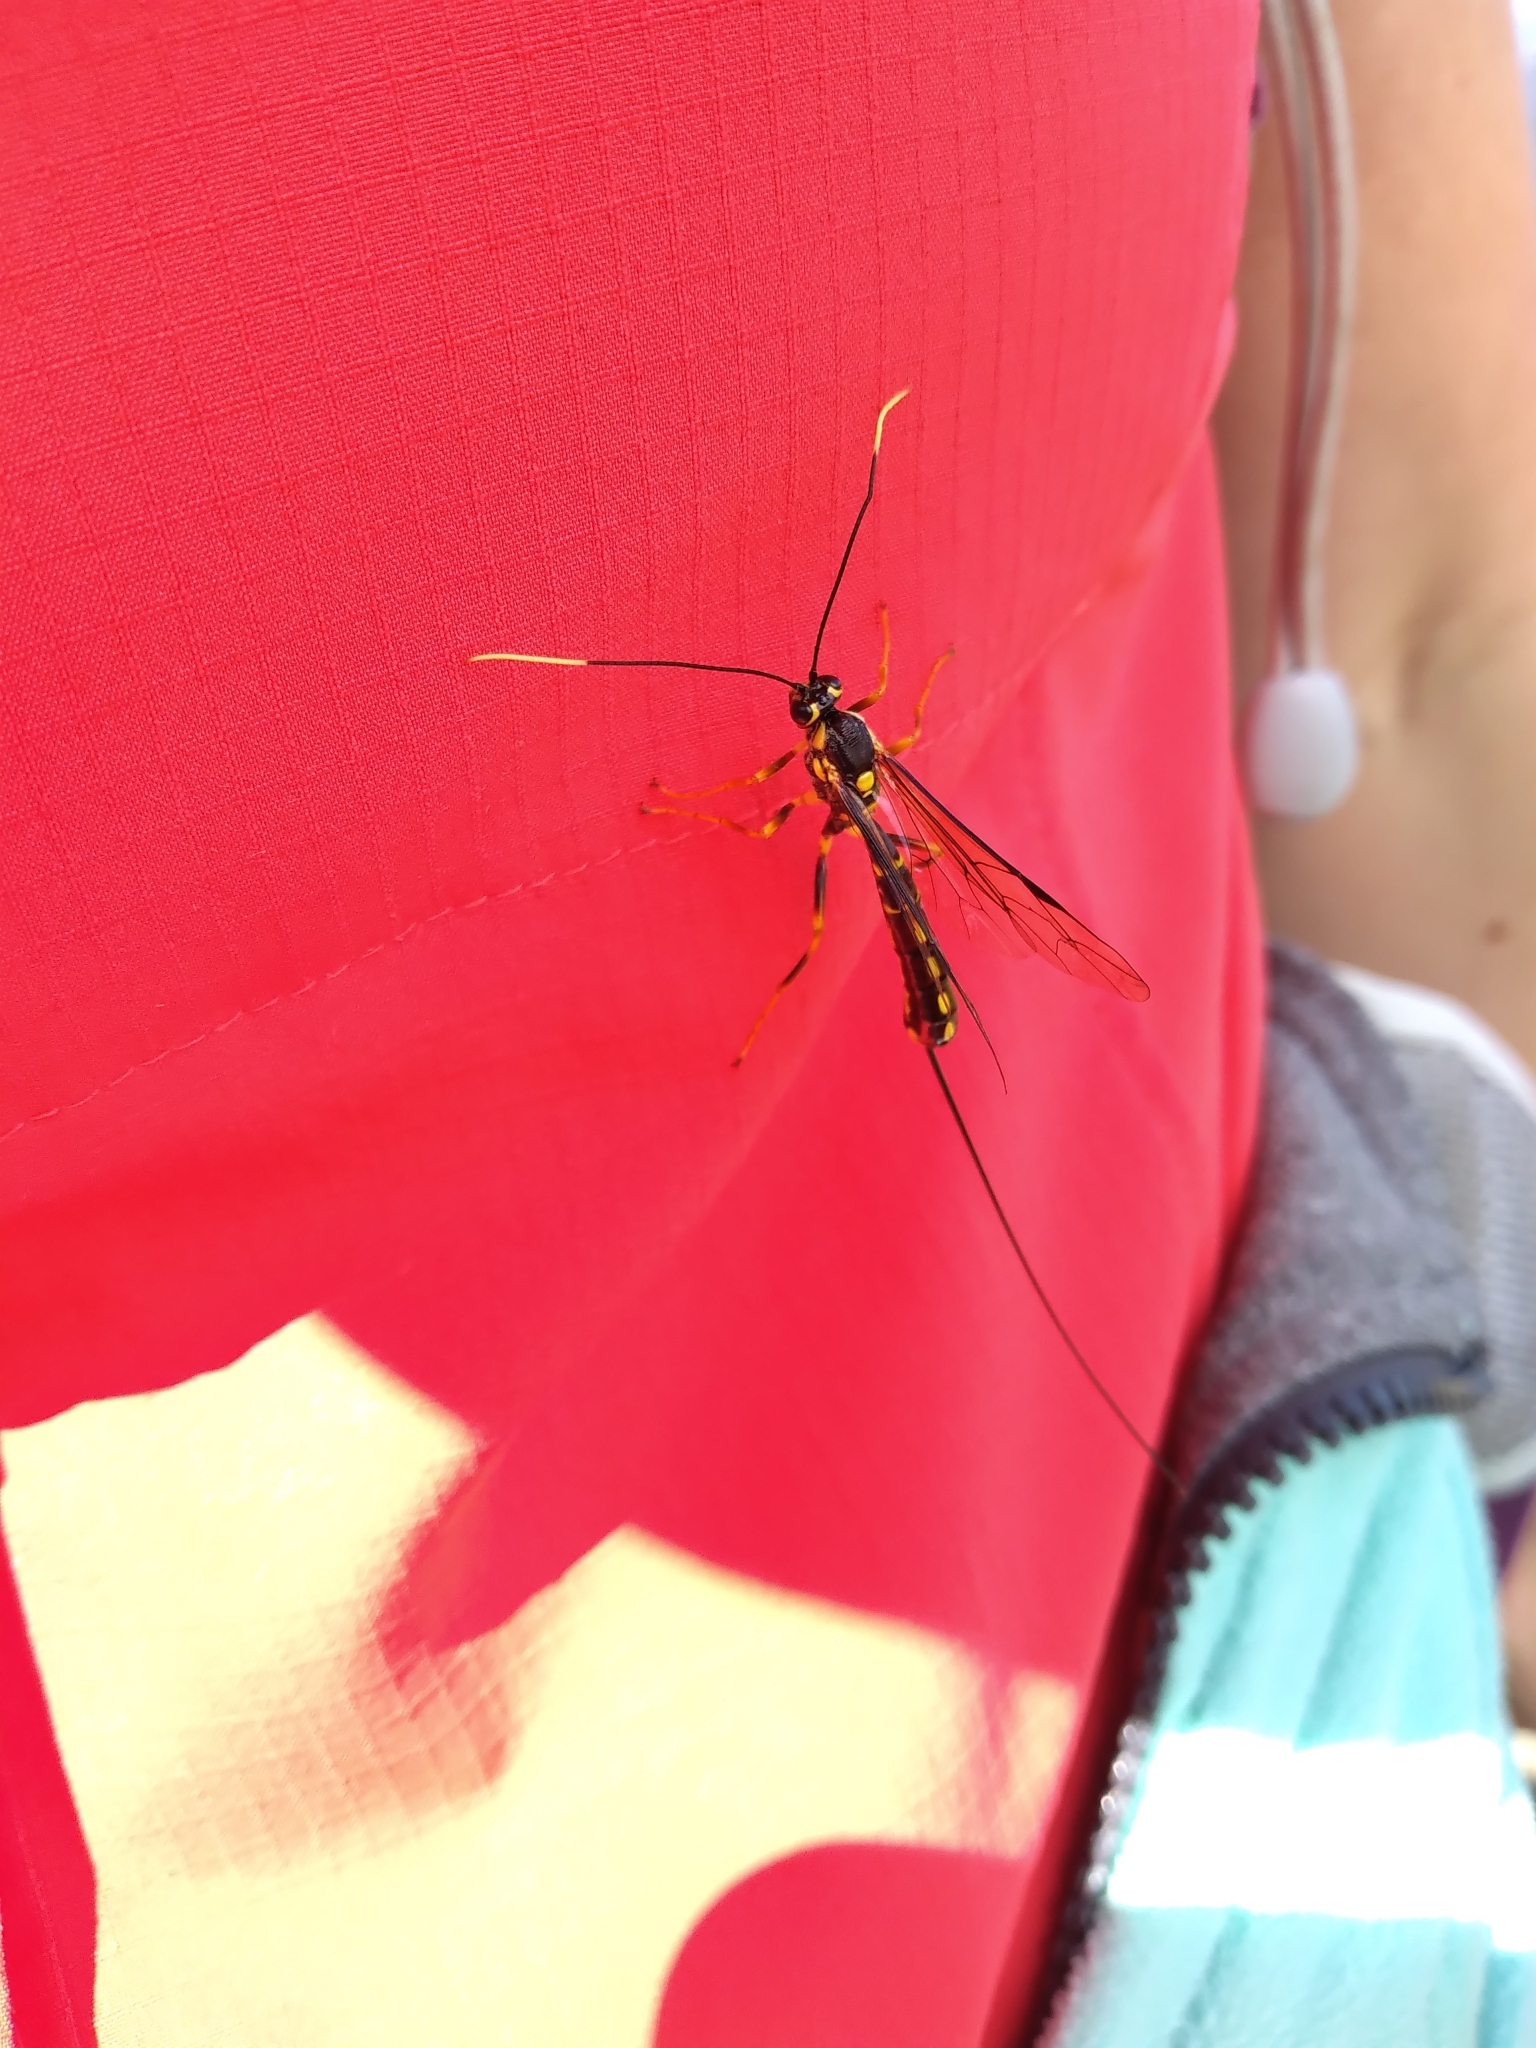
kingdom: Animalia
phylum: Arthropoda
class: Insecta
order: Hymenoptera
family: Ichneumonidae
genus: Certonotus
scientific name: Certonotus fractinervis
